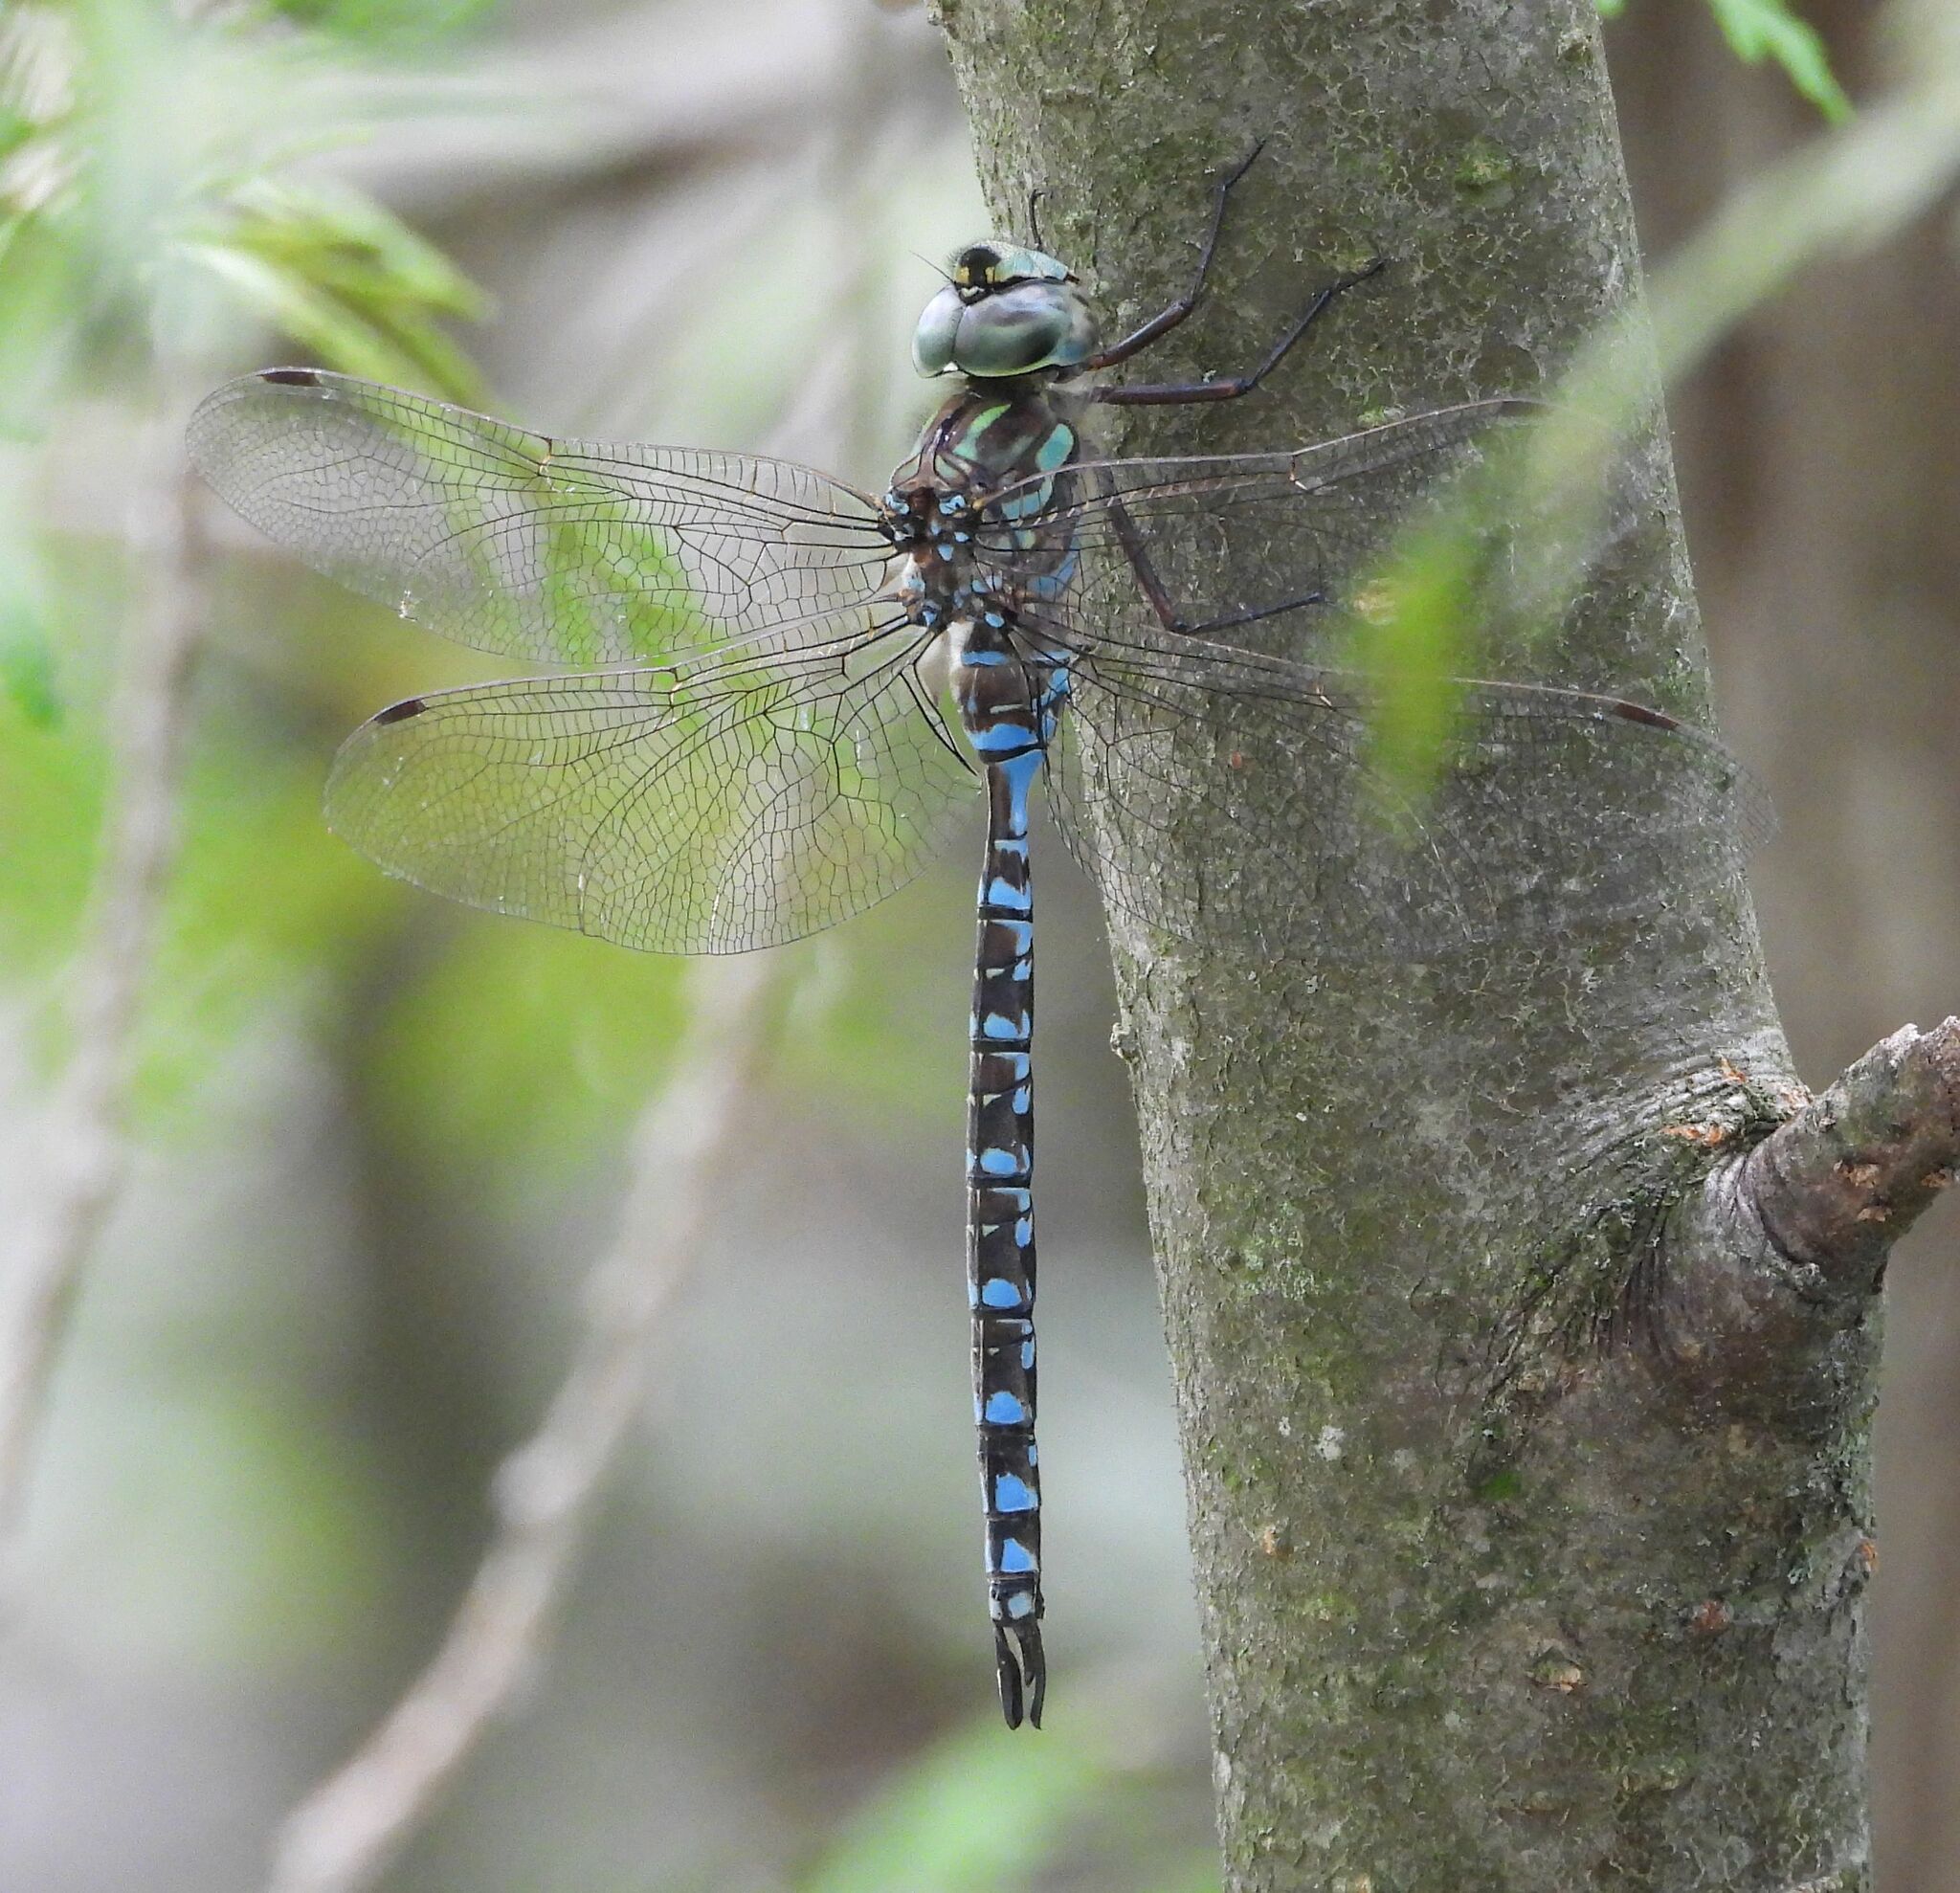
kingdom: Animalia
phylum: Arthropoda
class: Insecta
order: Odonata
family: Aeshnidae
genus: Aeshna
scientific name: Aeshna canadensis
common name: Canada darner
